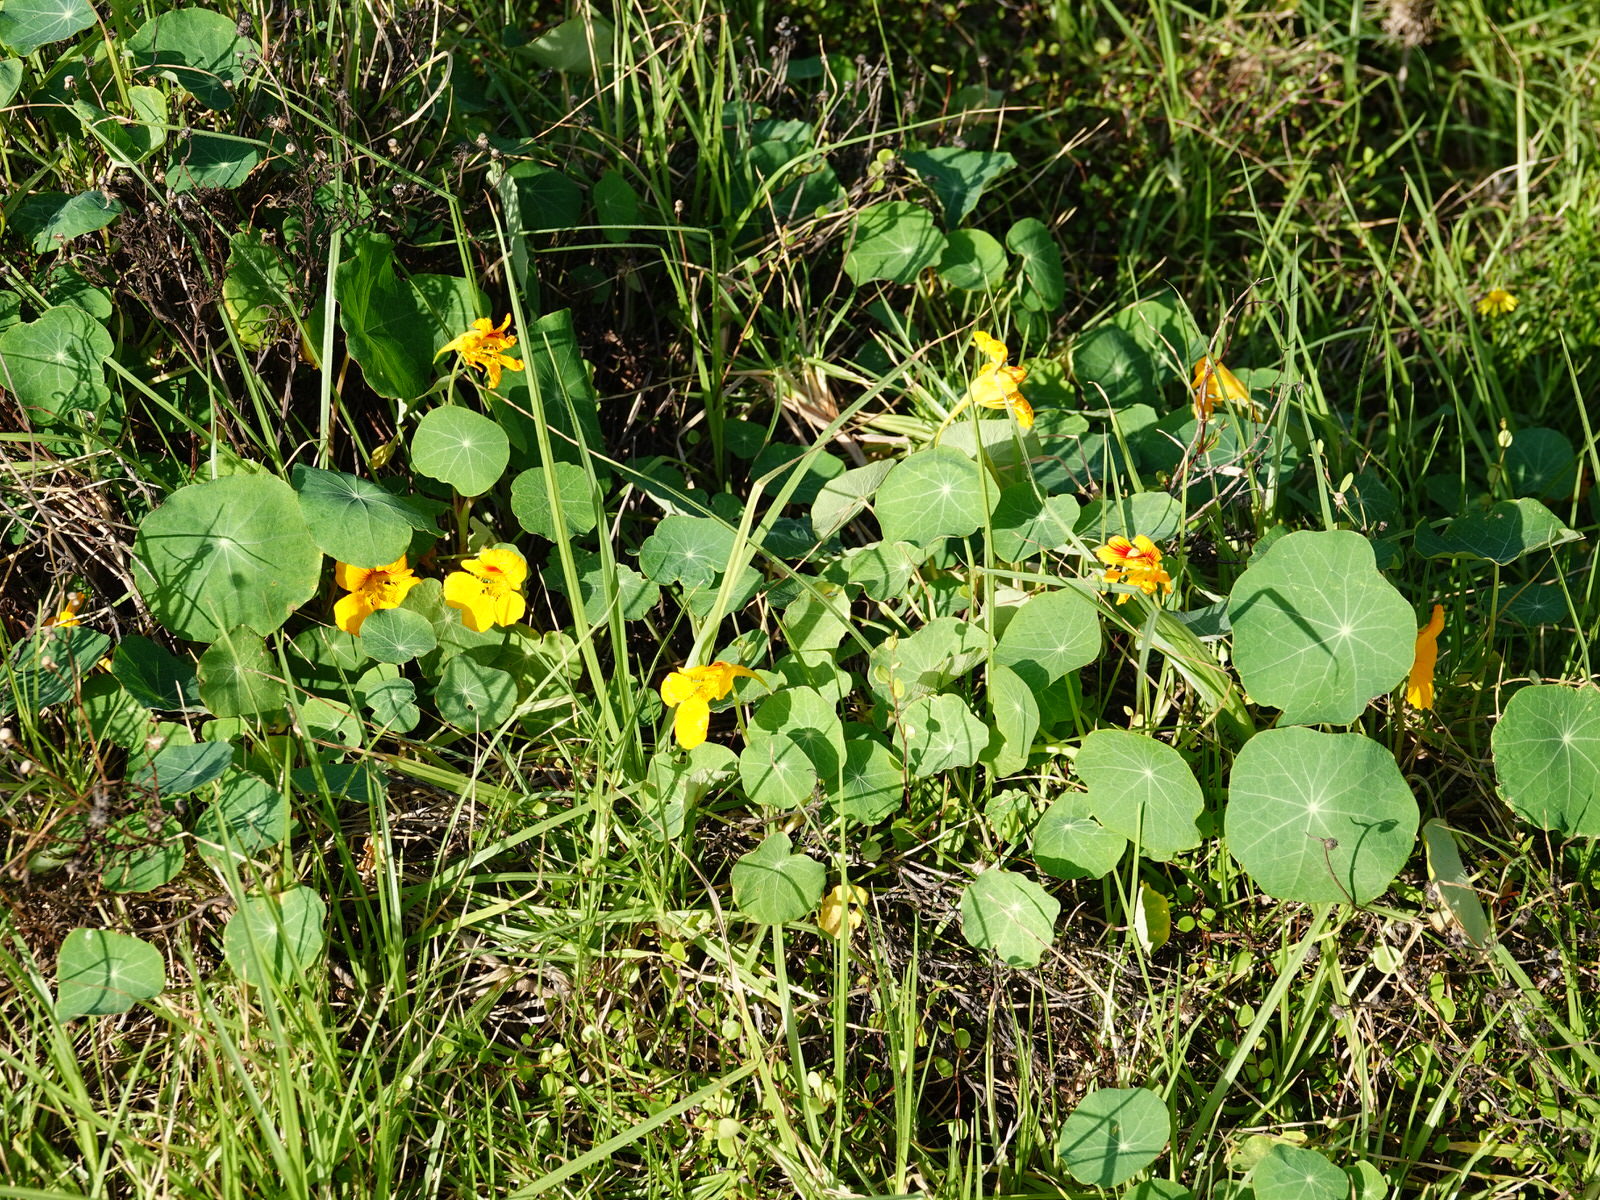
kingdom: Plantae
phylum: Tracheophyta
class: Magnoliopsida
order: Brassicales
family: Tropaeolaceae
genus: Tropaeolum
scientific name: Tropaeolum majus
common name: Nasturtium
